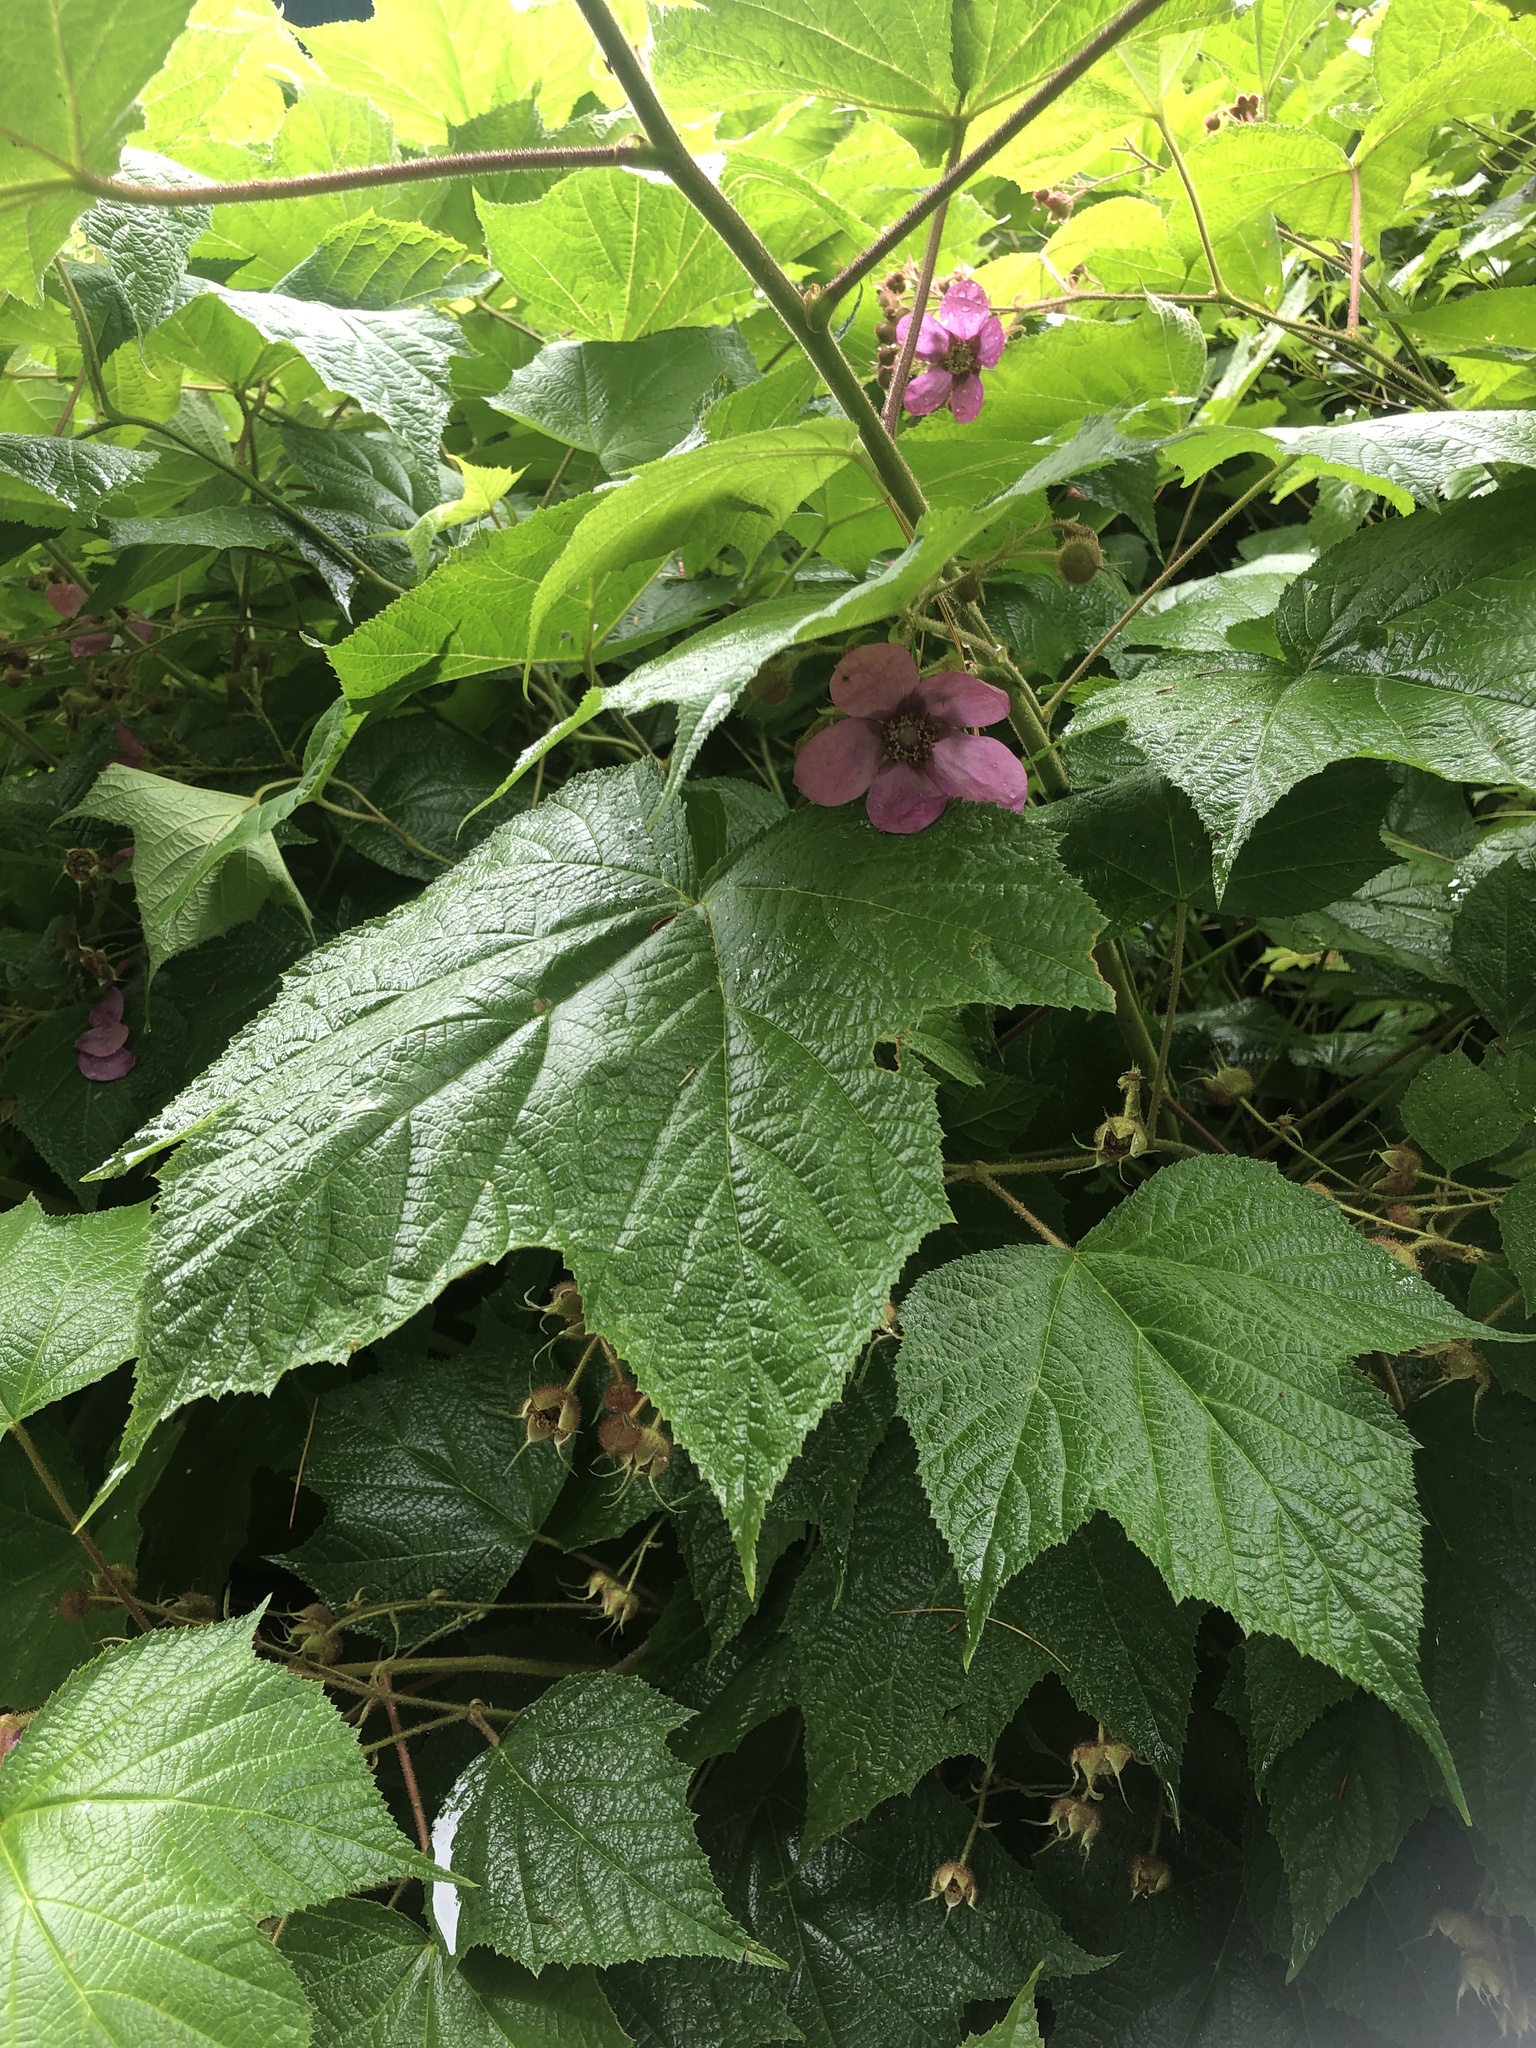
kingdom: Plantae
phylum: Tracheophyta
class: Magnoliopsida
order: Rosales
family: Rosaceae
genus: Rubus
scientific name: Rubus odoratus
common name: Purple-flowered raspberry
